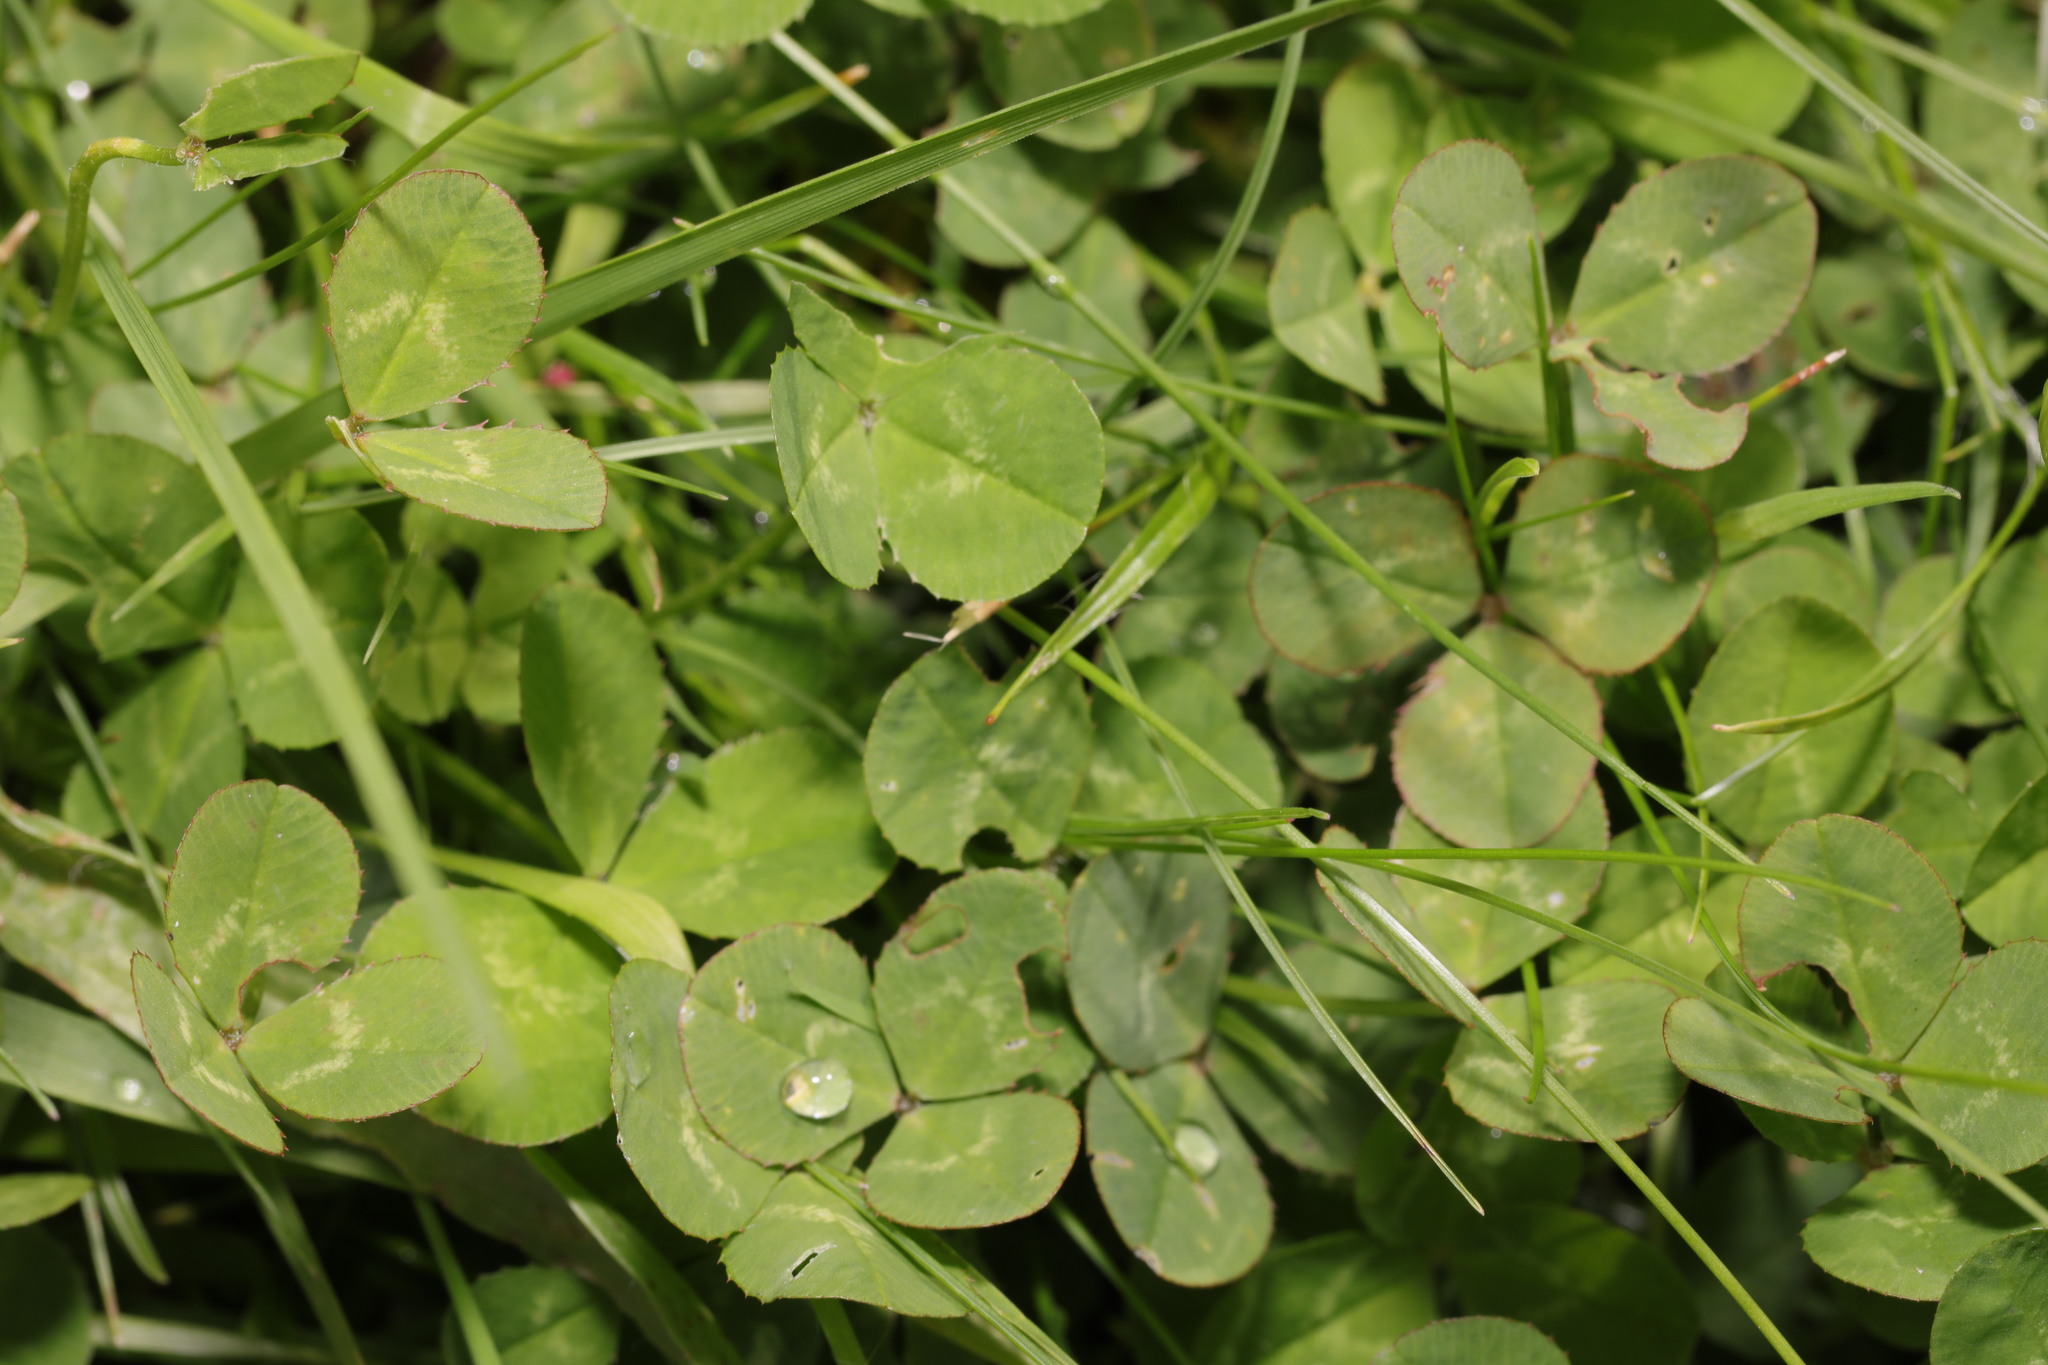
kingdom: Plantae
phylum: Tracheophyta
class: Magnoliopsida
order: Fabales
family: Fabaceae
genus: Trifolium
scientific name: Trifolium repens
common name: White clover
